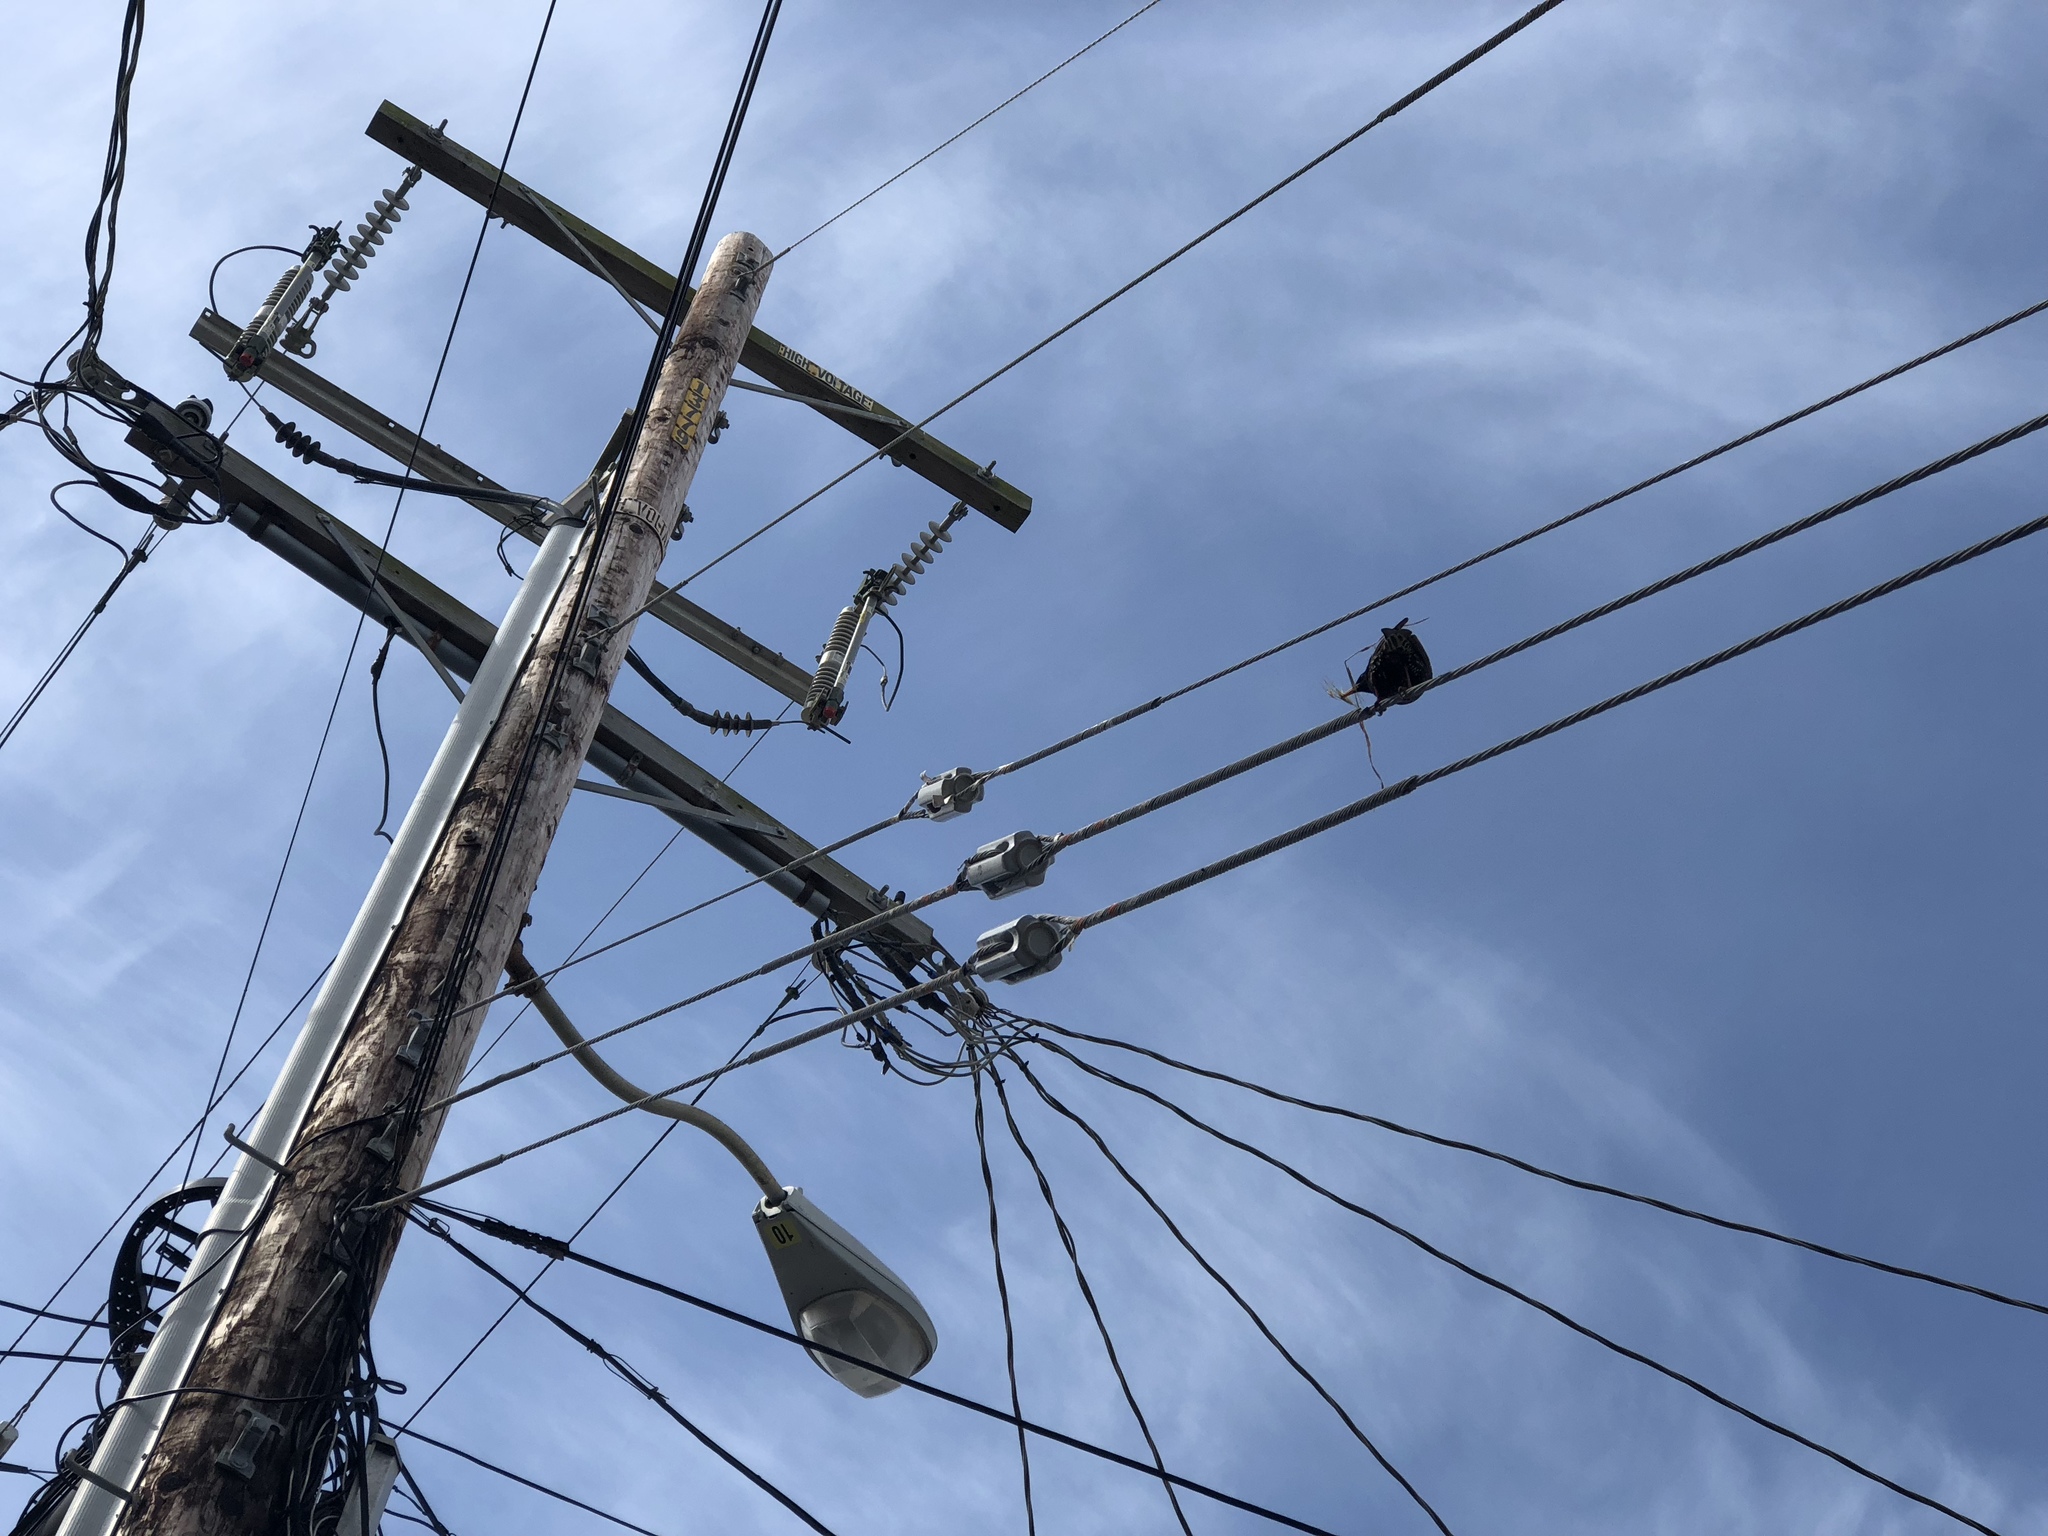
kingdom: Animalia
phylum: Chordata
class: Aves
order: Passeriformes
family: Sturnidae
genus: Sturnus
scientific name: Sturnus vulgaris
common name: Common starling
